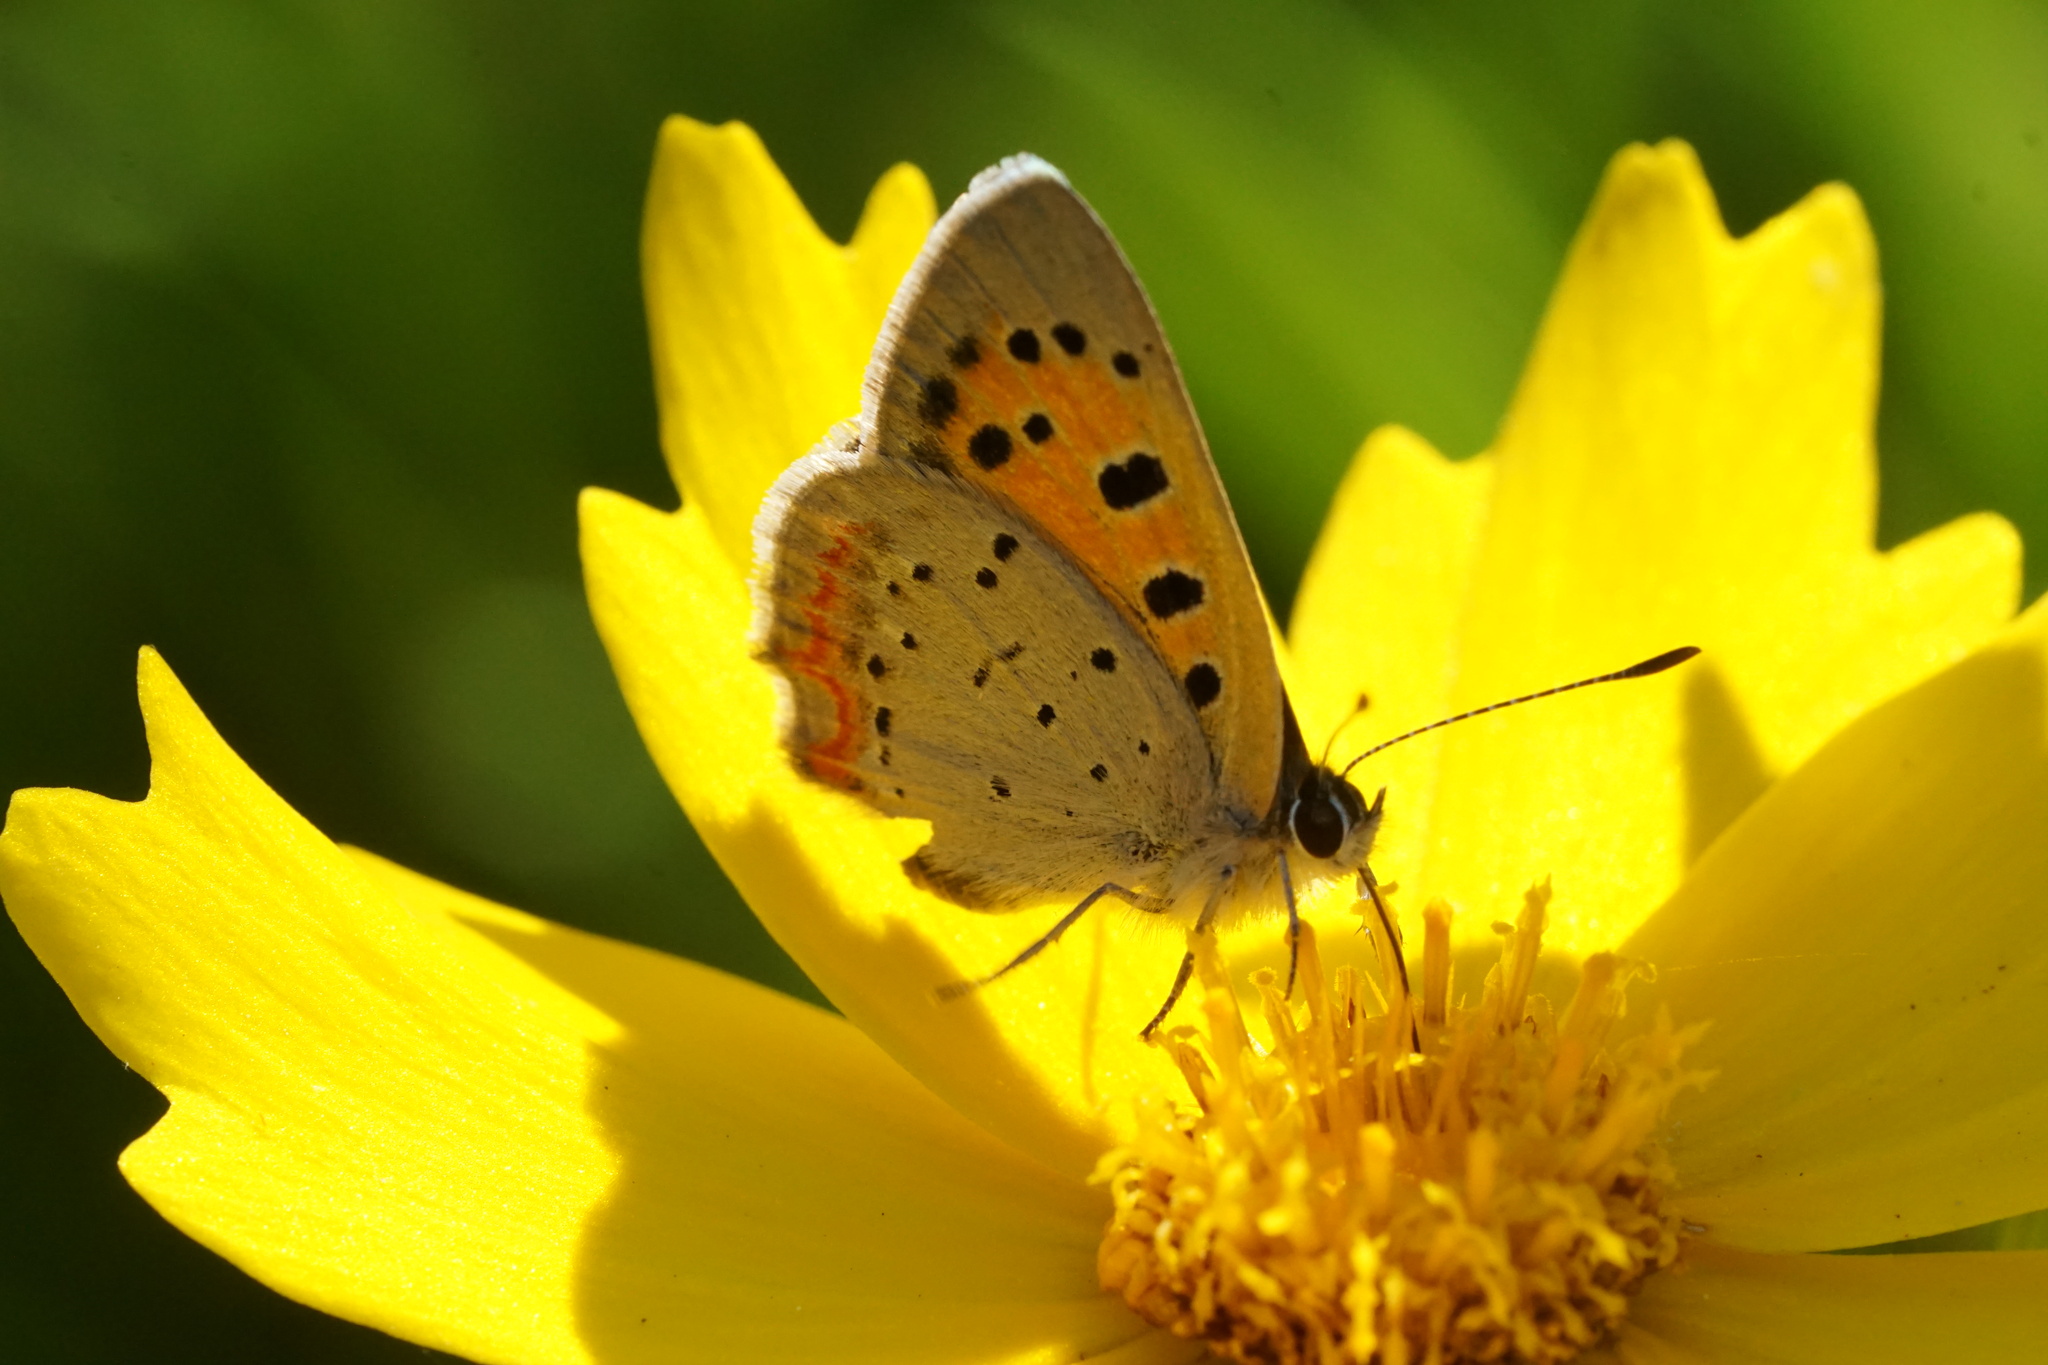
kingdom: Animalia
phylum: Arthropoda
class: Insecta
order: Lepidoptera
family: Lycaenidae
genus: Lycaena
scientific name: Lycaena hypophlaeas
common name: American copper
